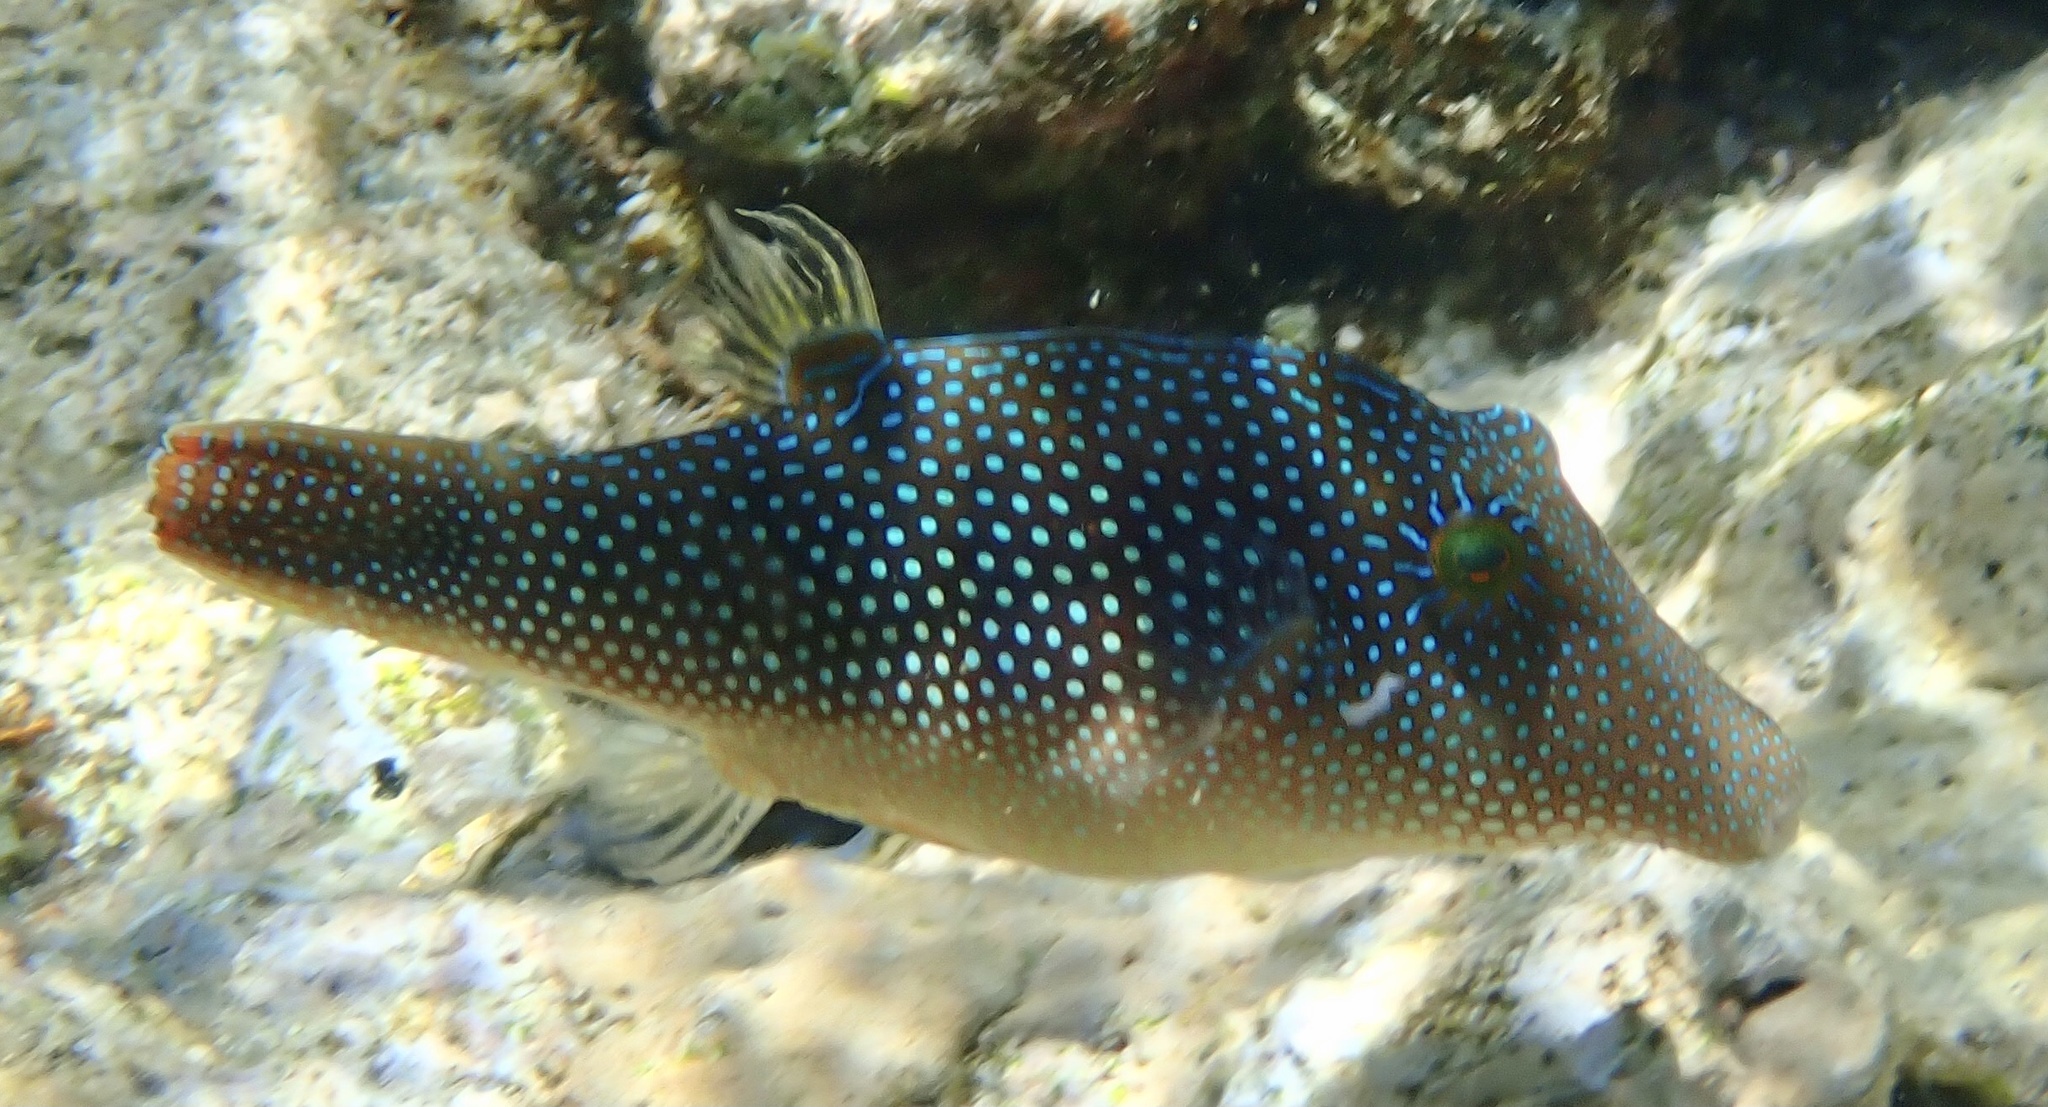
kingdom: Animalia
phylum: Chordata
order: Tetraodontiformes
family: Tetraodontidae
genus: Canthigaster
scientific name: Canthigaster margaritata
